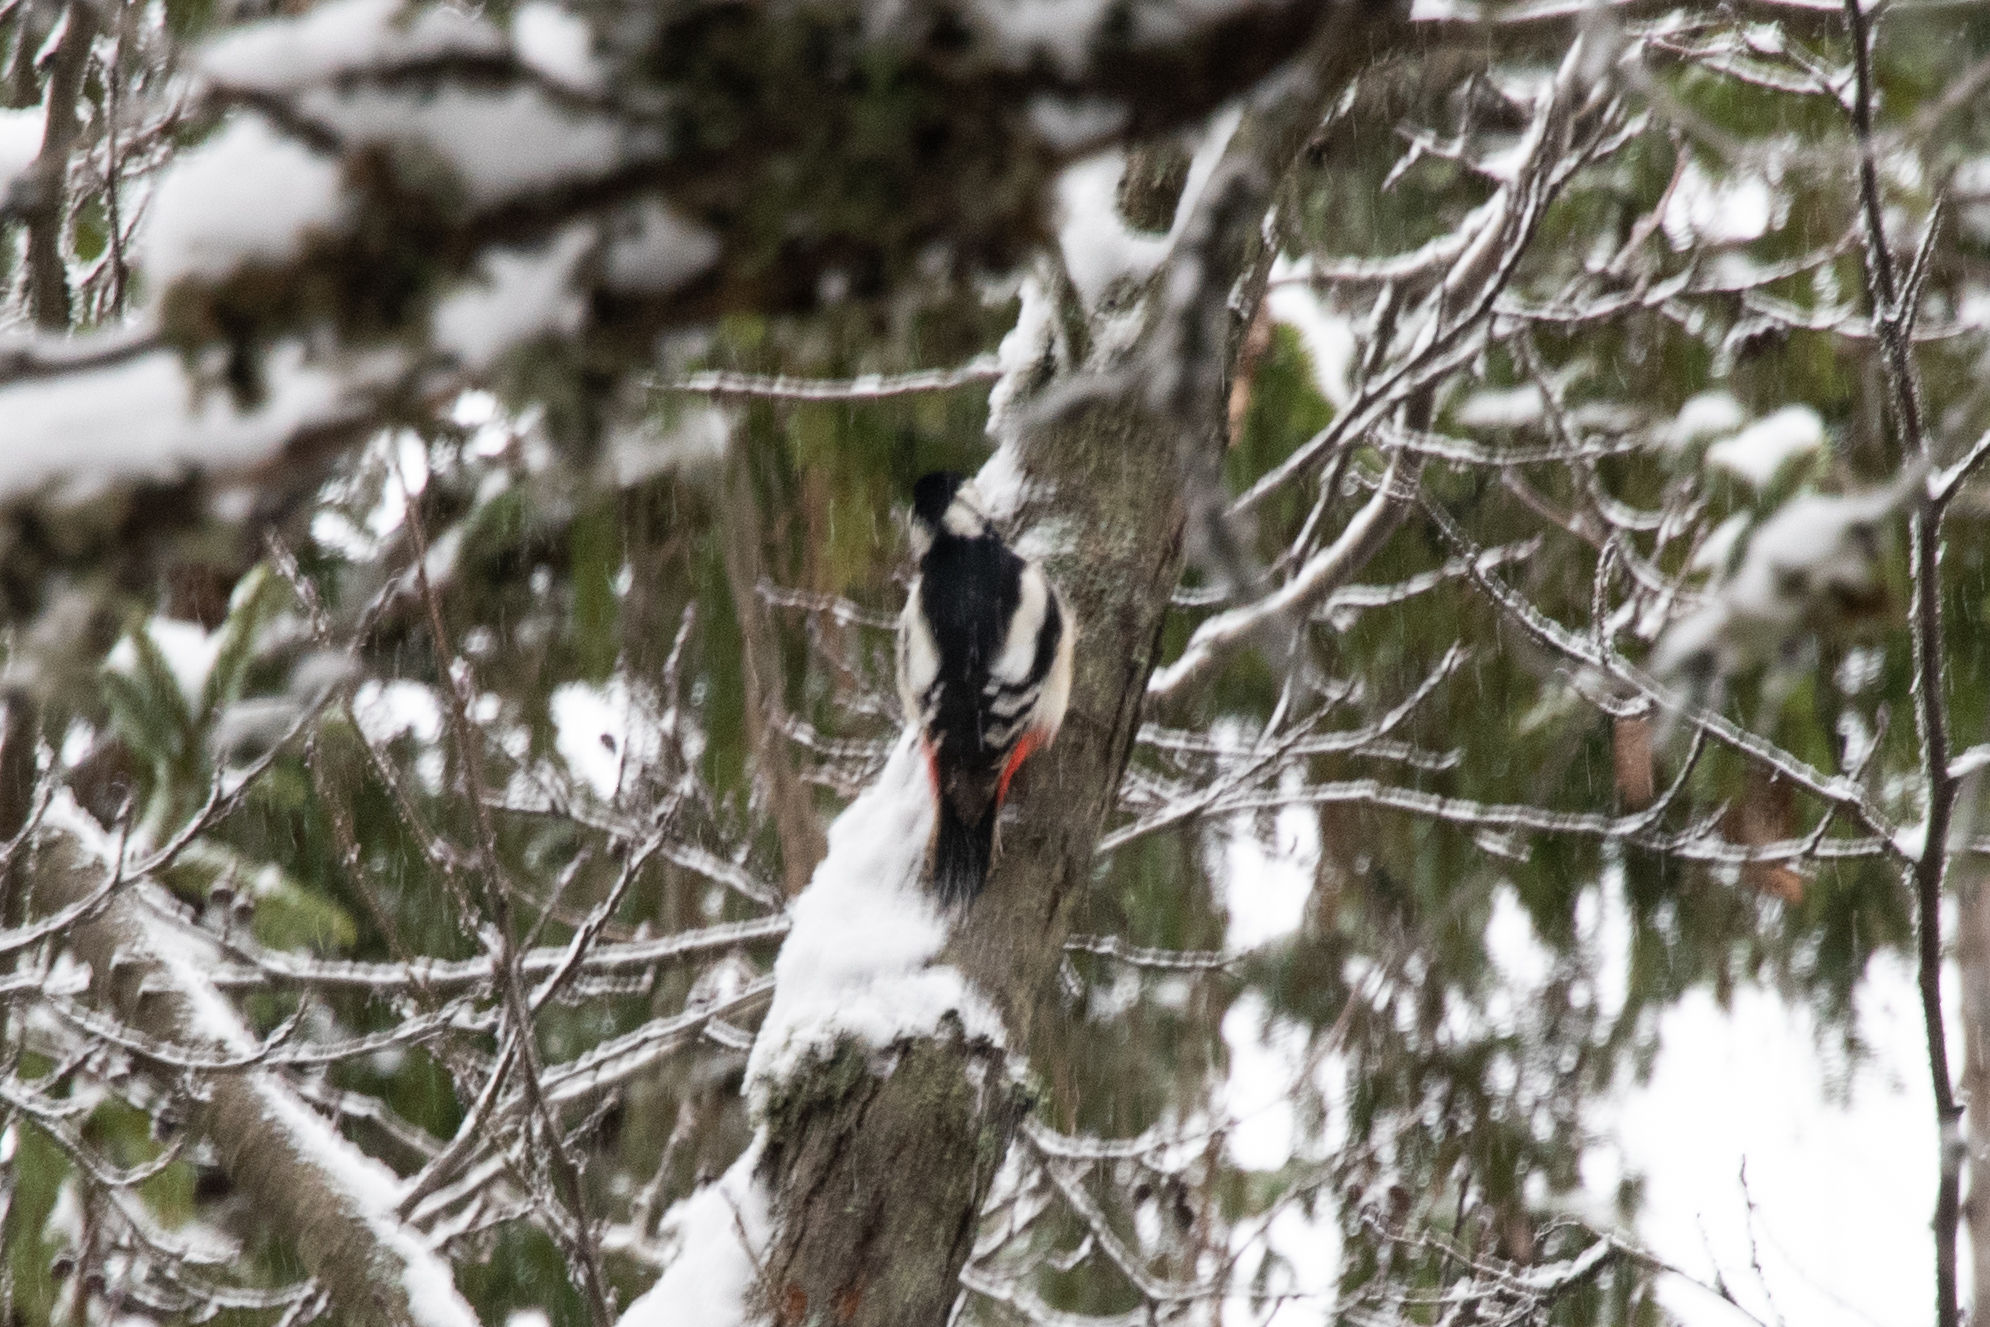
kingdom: Animalia
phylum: Chordata
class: Aves
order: Piciformes
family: Picidae
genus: Dendrocopos
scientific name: Dendrocopos major
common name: Great spotted woodpecker
